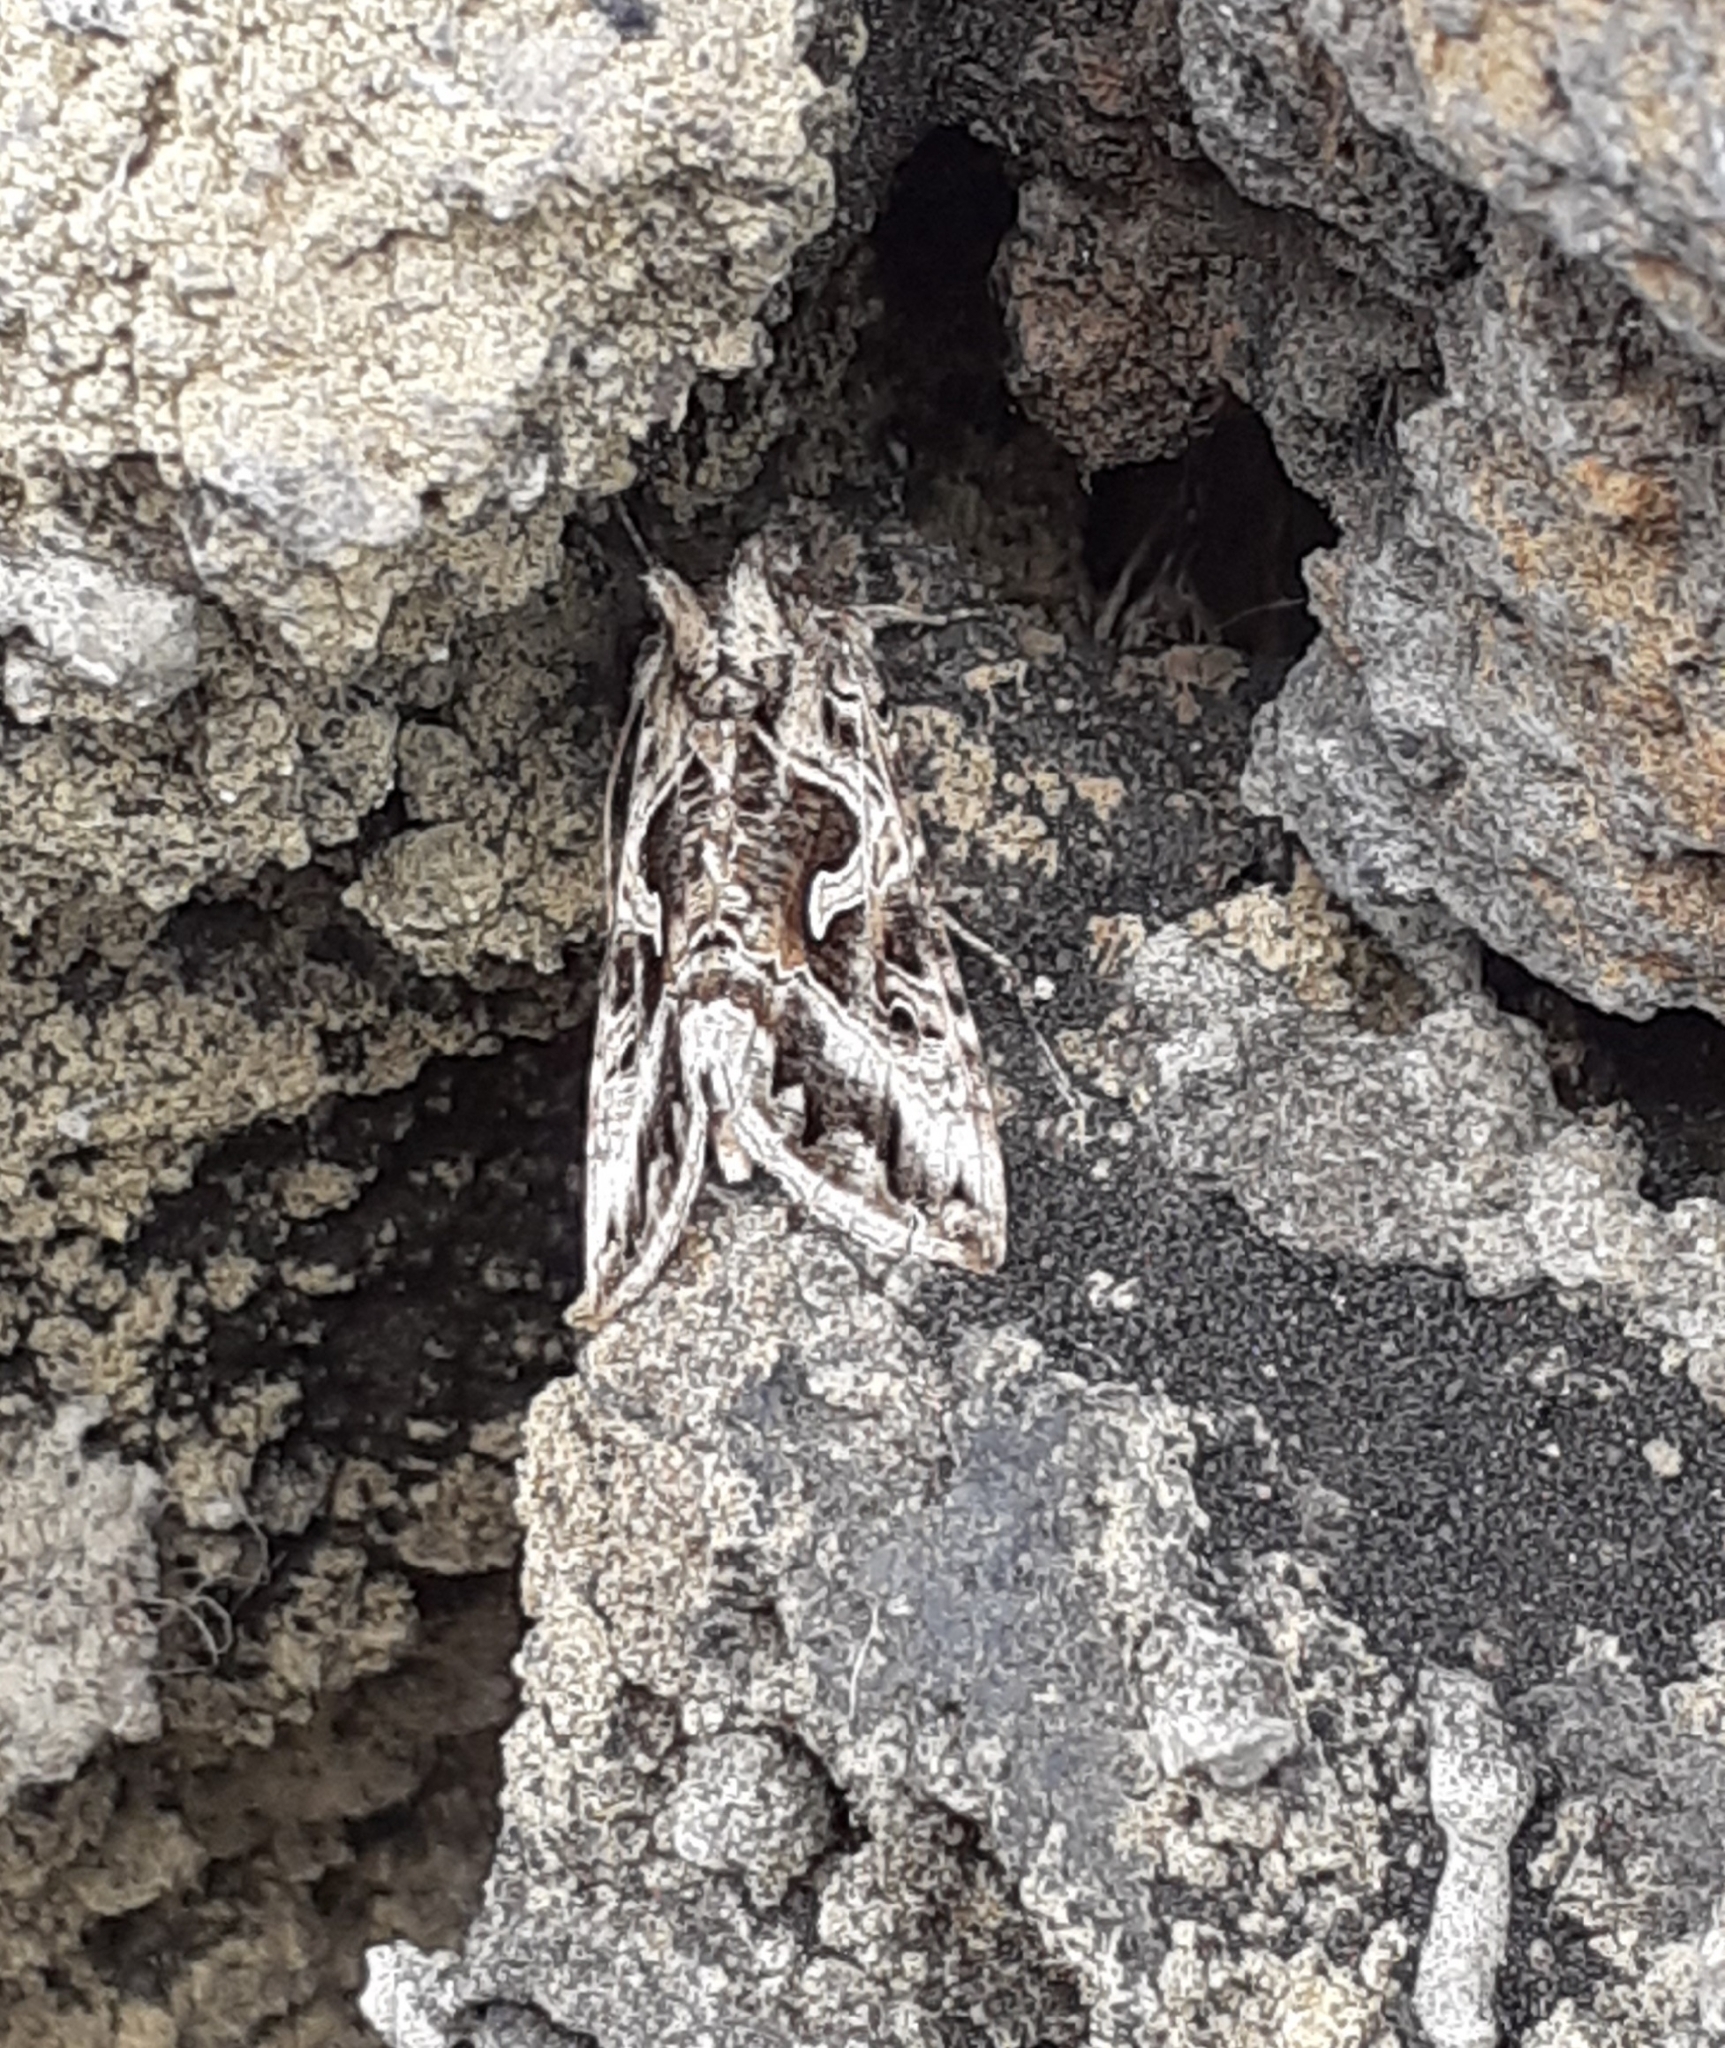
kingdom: Animalia
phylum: Arthropoda
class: Insecta
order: Lepidoptera
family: Noctuidae
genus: Cornutiplusia
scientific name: Cornutiplusia circumflexa
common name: Yorkshire y
